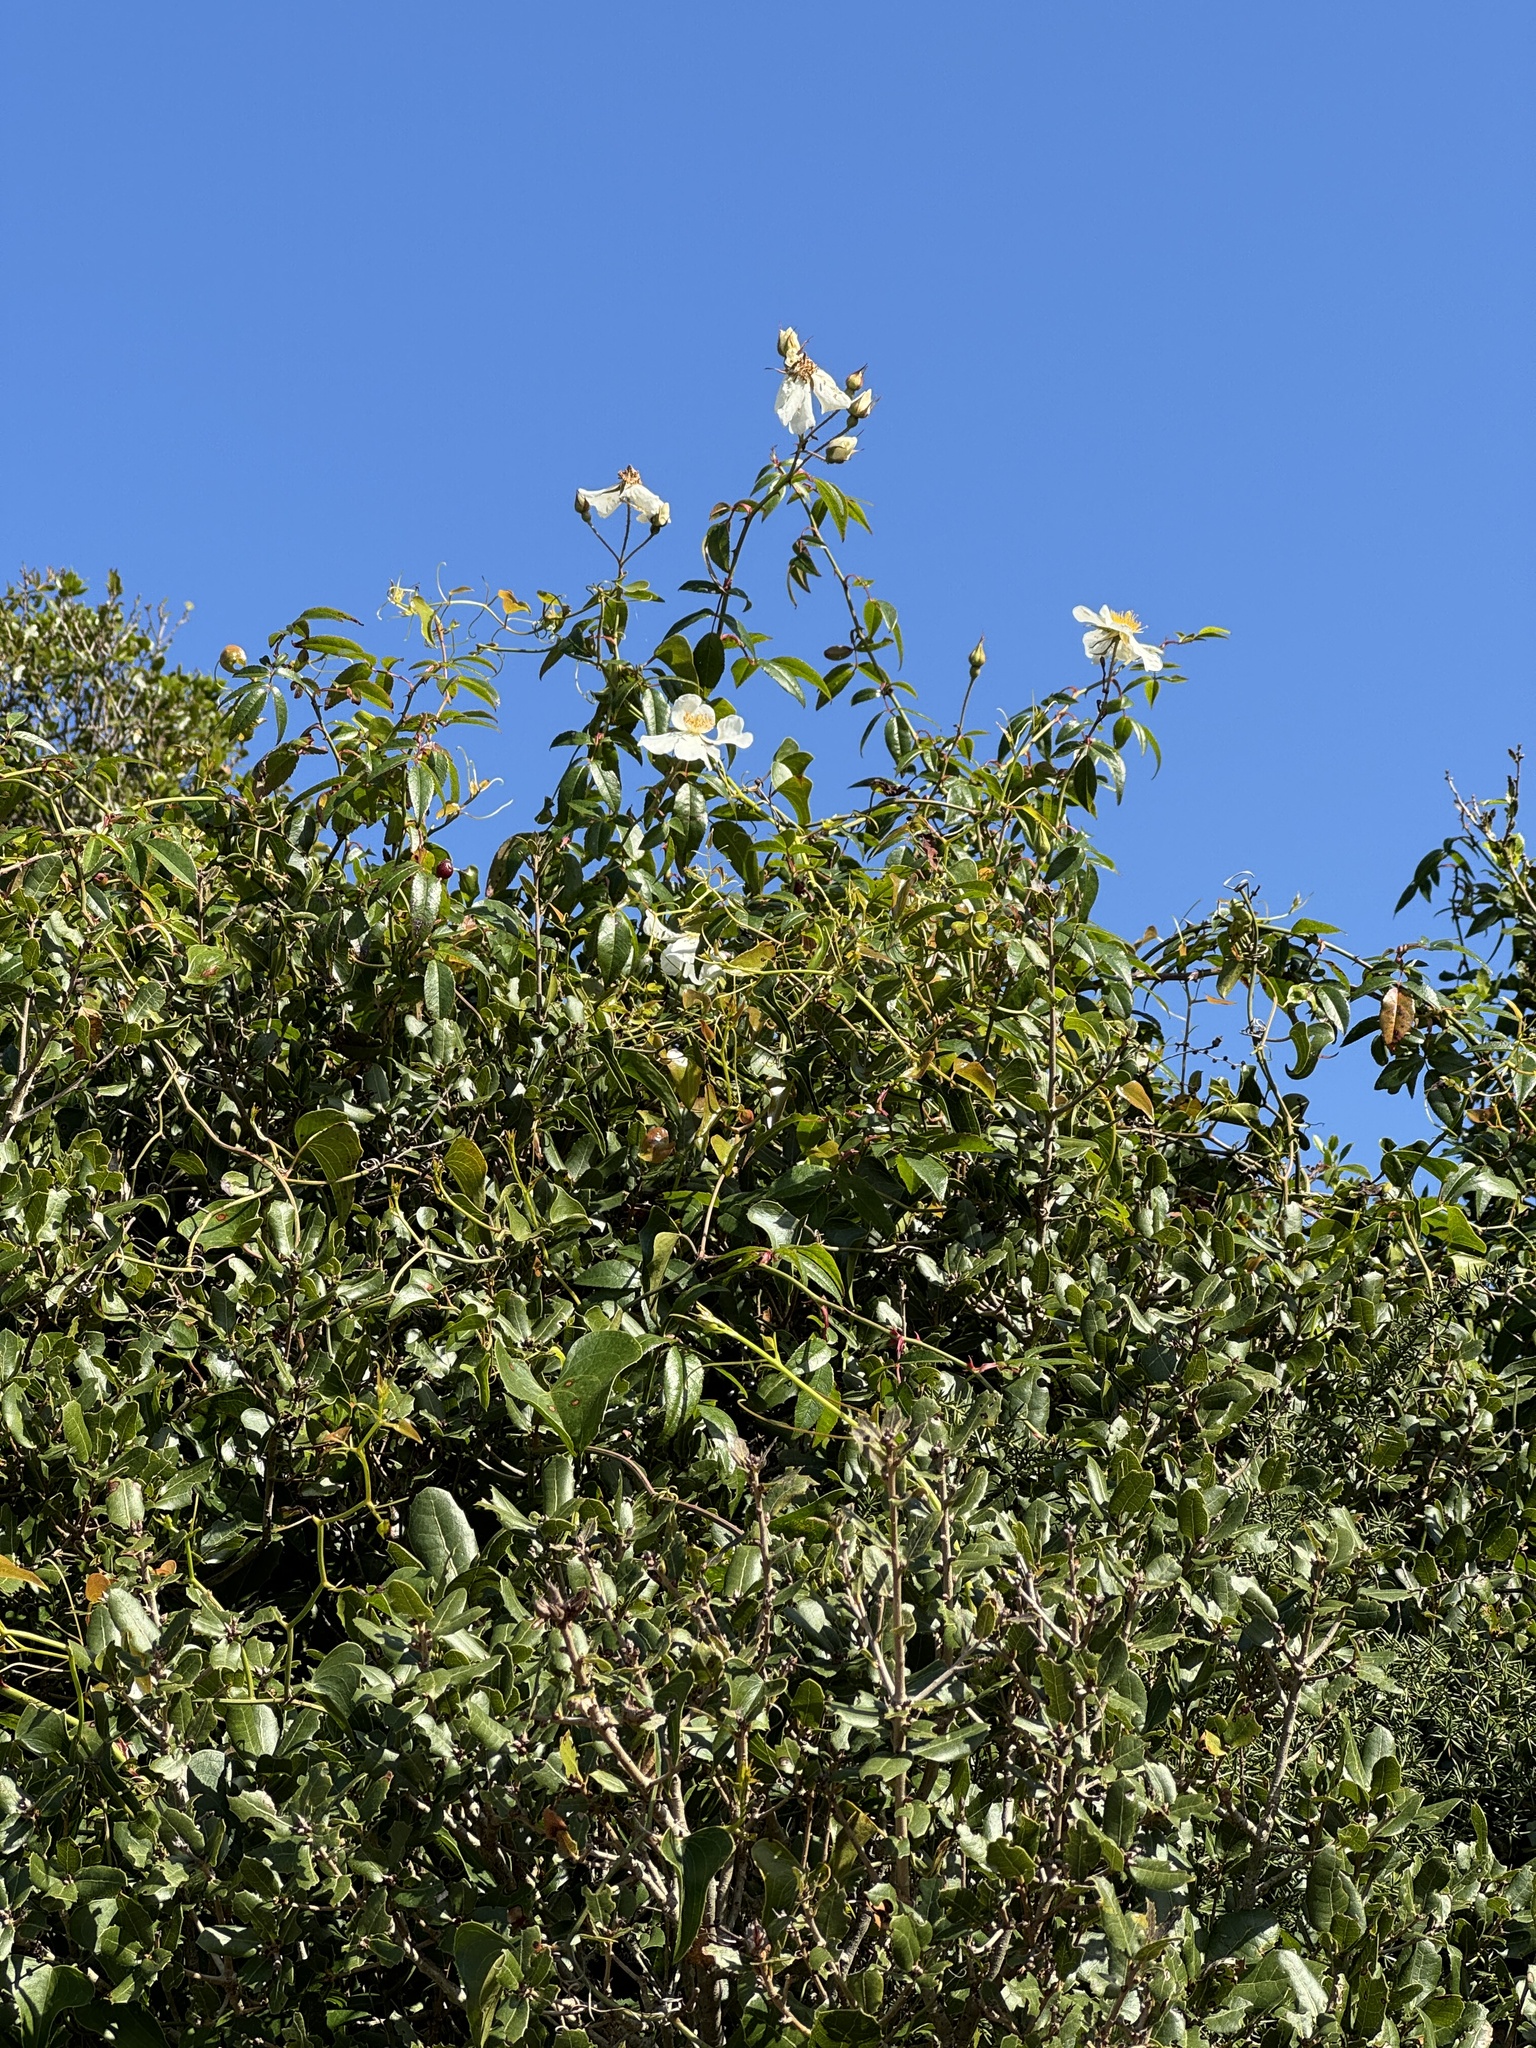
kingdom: Plantae
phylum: Tracheophyta
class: Magnoliopsida
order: Rosales
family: Rosaceae
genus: Rosa
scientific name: Rosa sempervirens
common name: Evergreen rose
